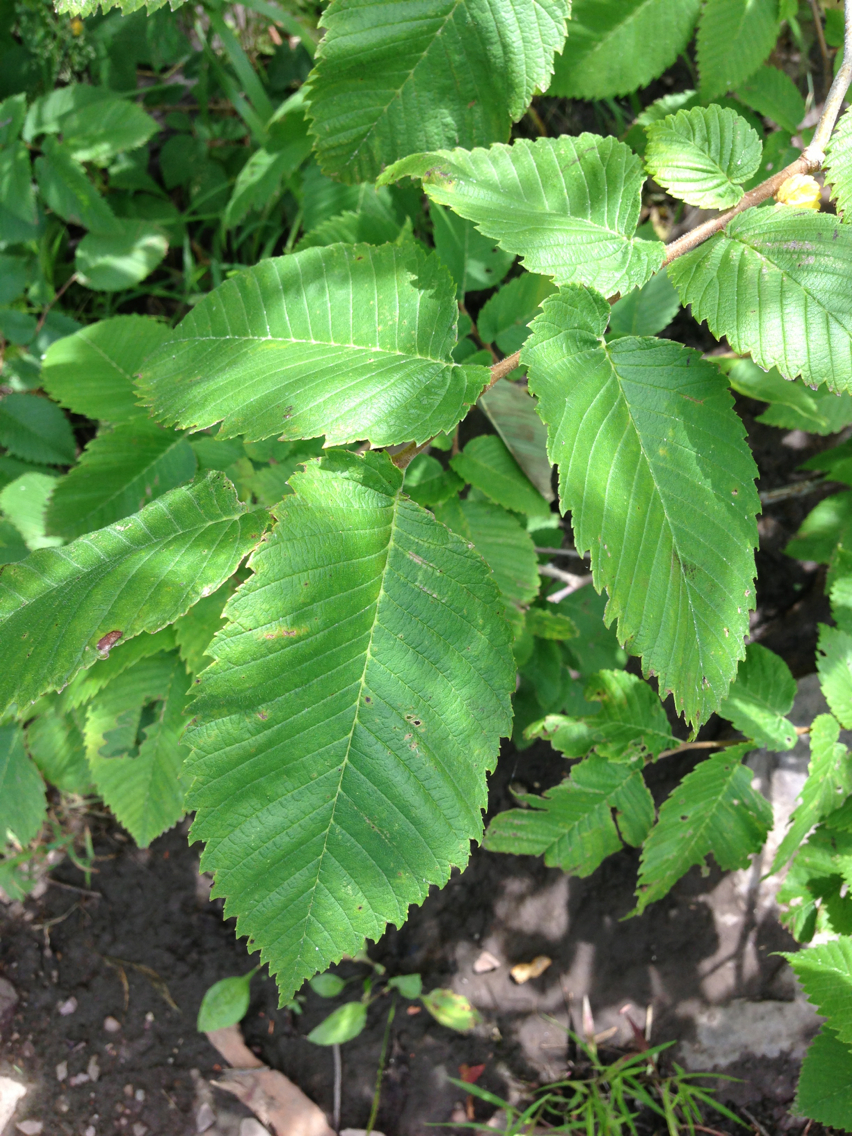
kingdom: Plantae
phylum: Tracheophyta
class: Magnoliopsida
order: Rosales
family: Ulmaceae
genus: Ulmus
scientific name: Ulmus americana
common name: American elm
